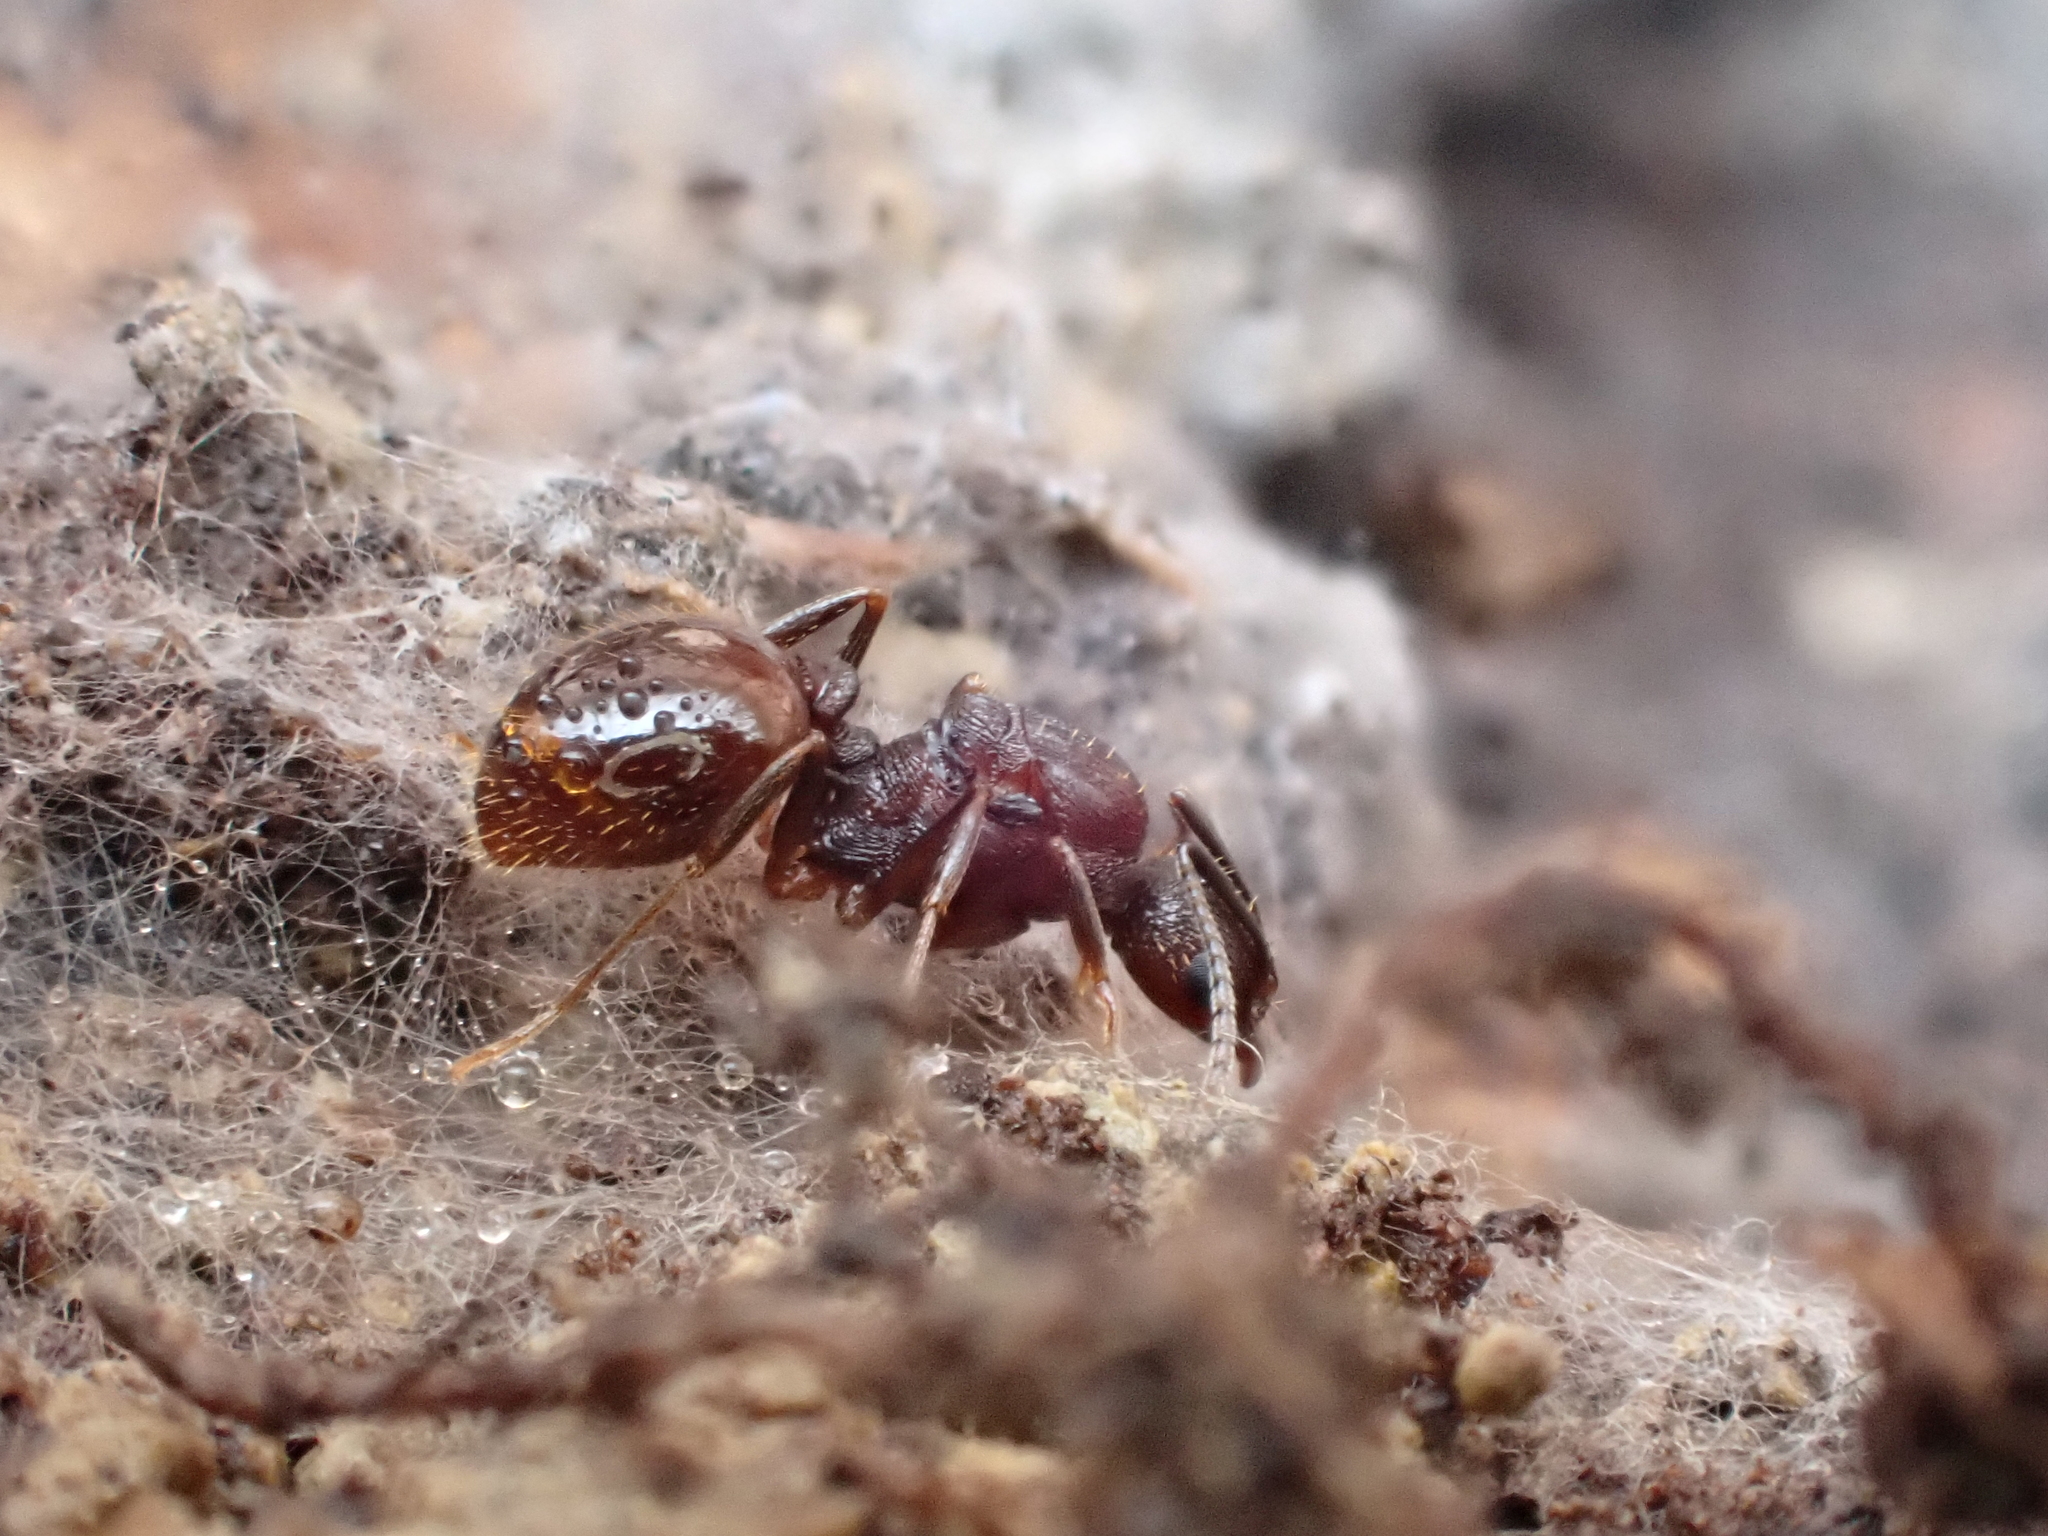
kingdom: Animalia
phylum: Arthropoda
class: Insecta
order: Hymenoptera
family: Formicidae
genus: Aphaenogaster
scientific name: Aphaenogaster fulva
